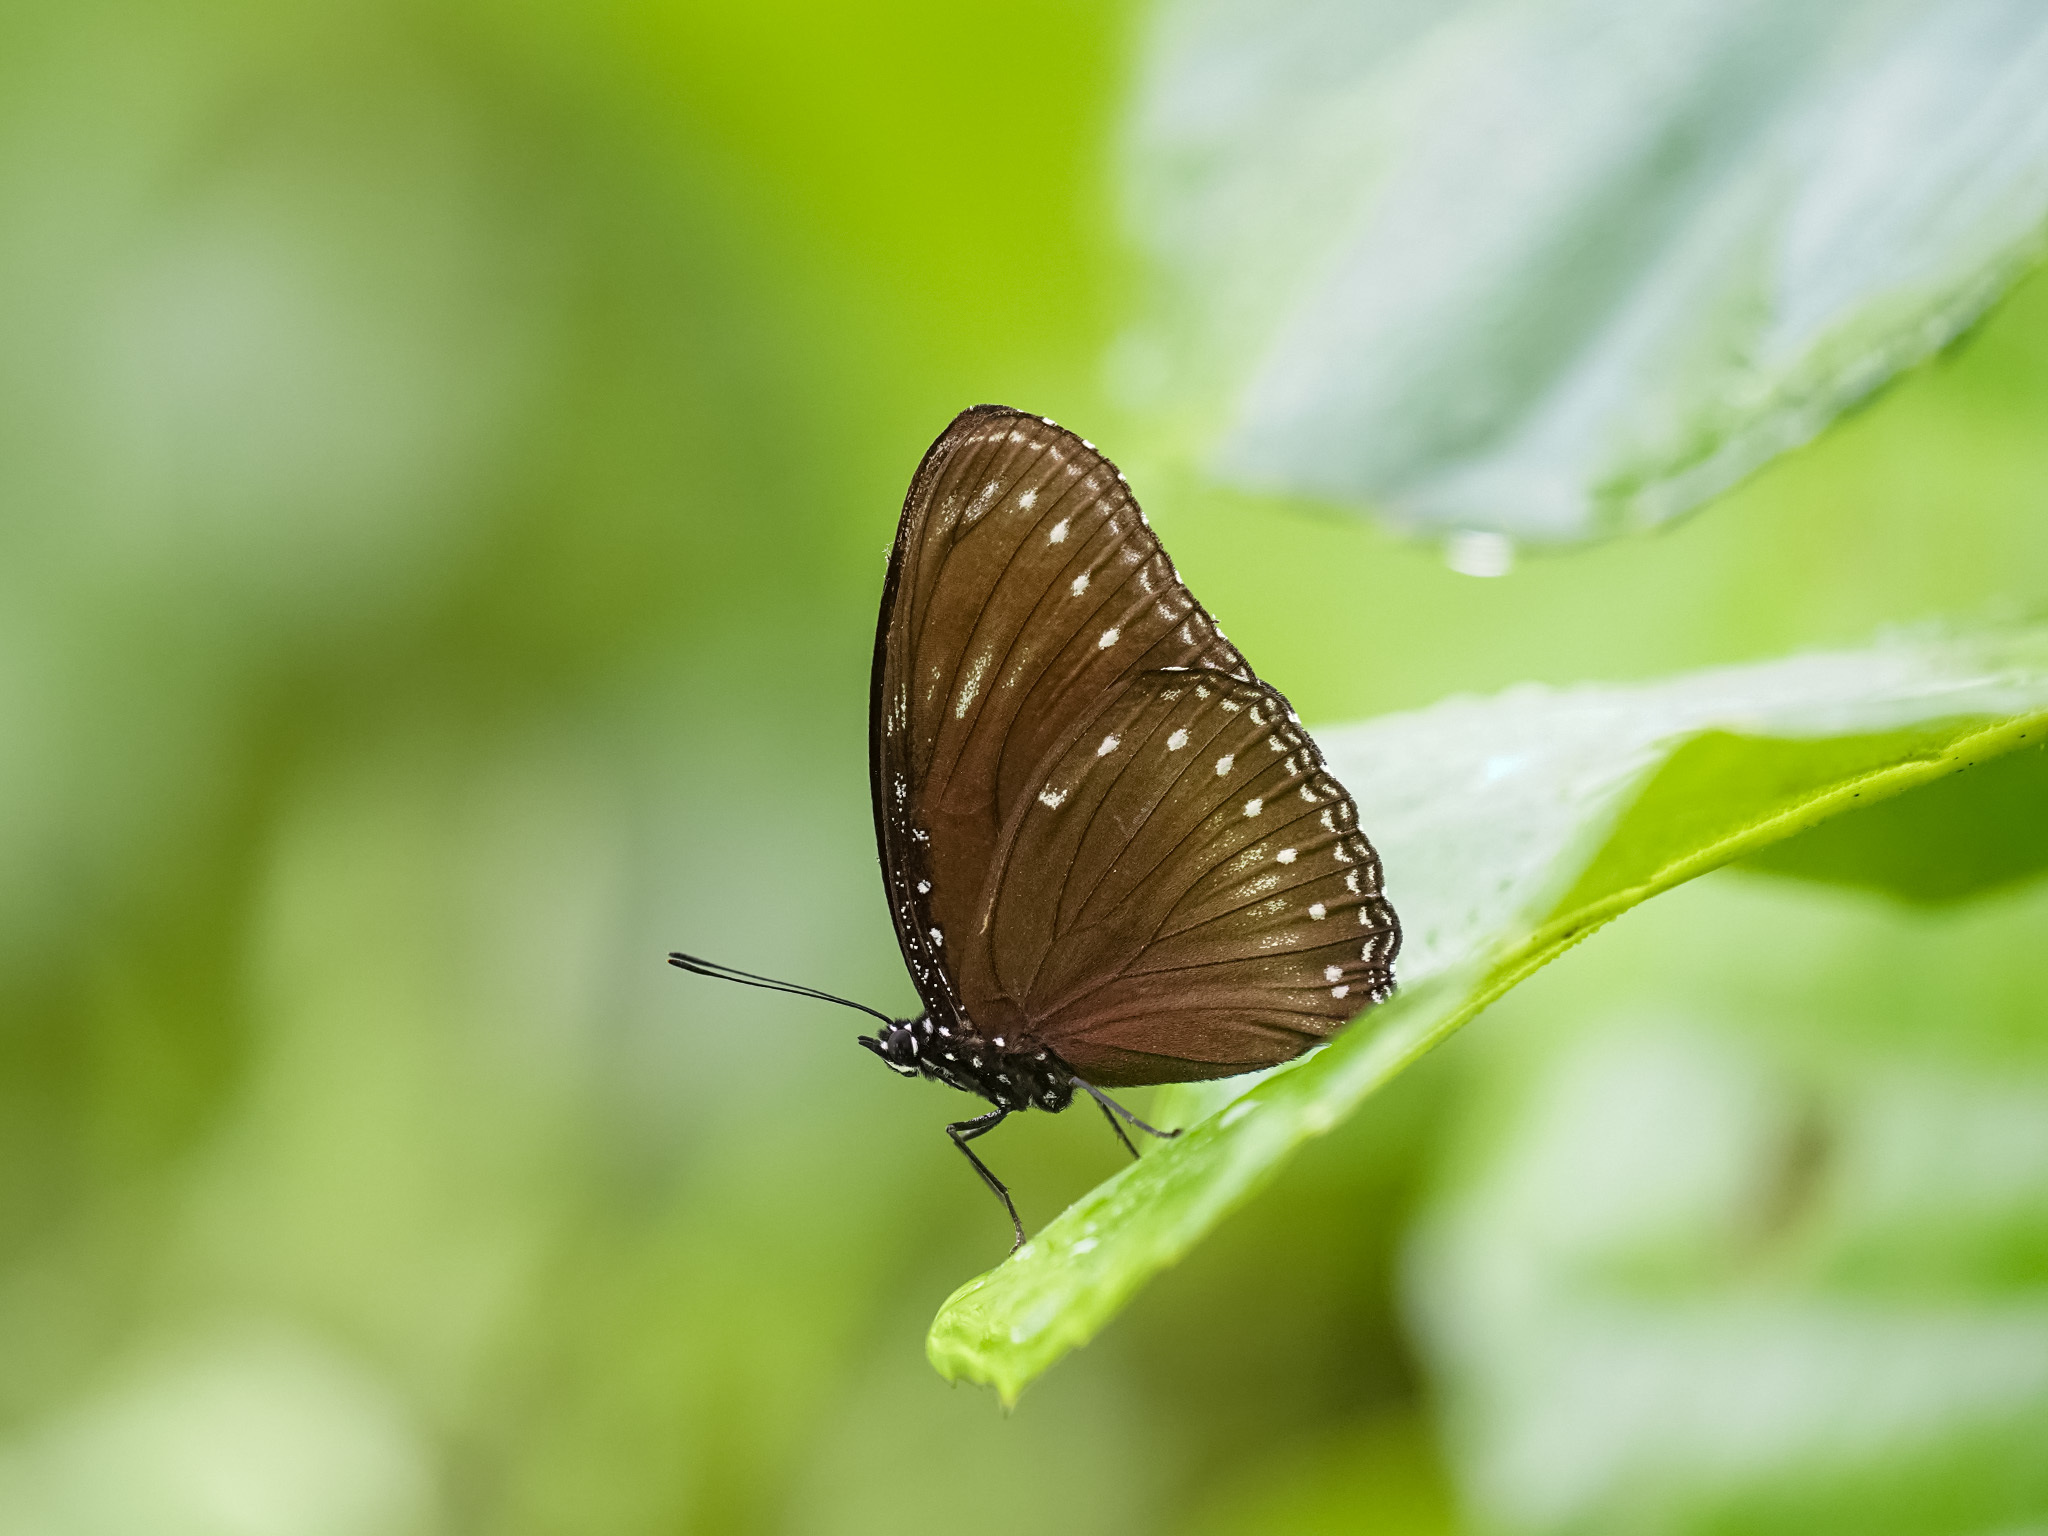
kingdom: Animalia
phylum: Arthropoda
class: Insecta
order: Lepidoptera
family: Nymphalidae
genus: Hypolimnas
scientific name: Hypolimnas anomala
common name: Malayan eggfly
